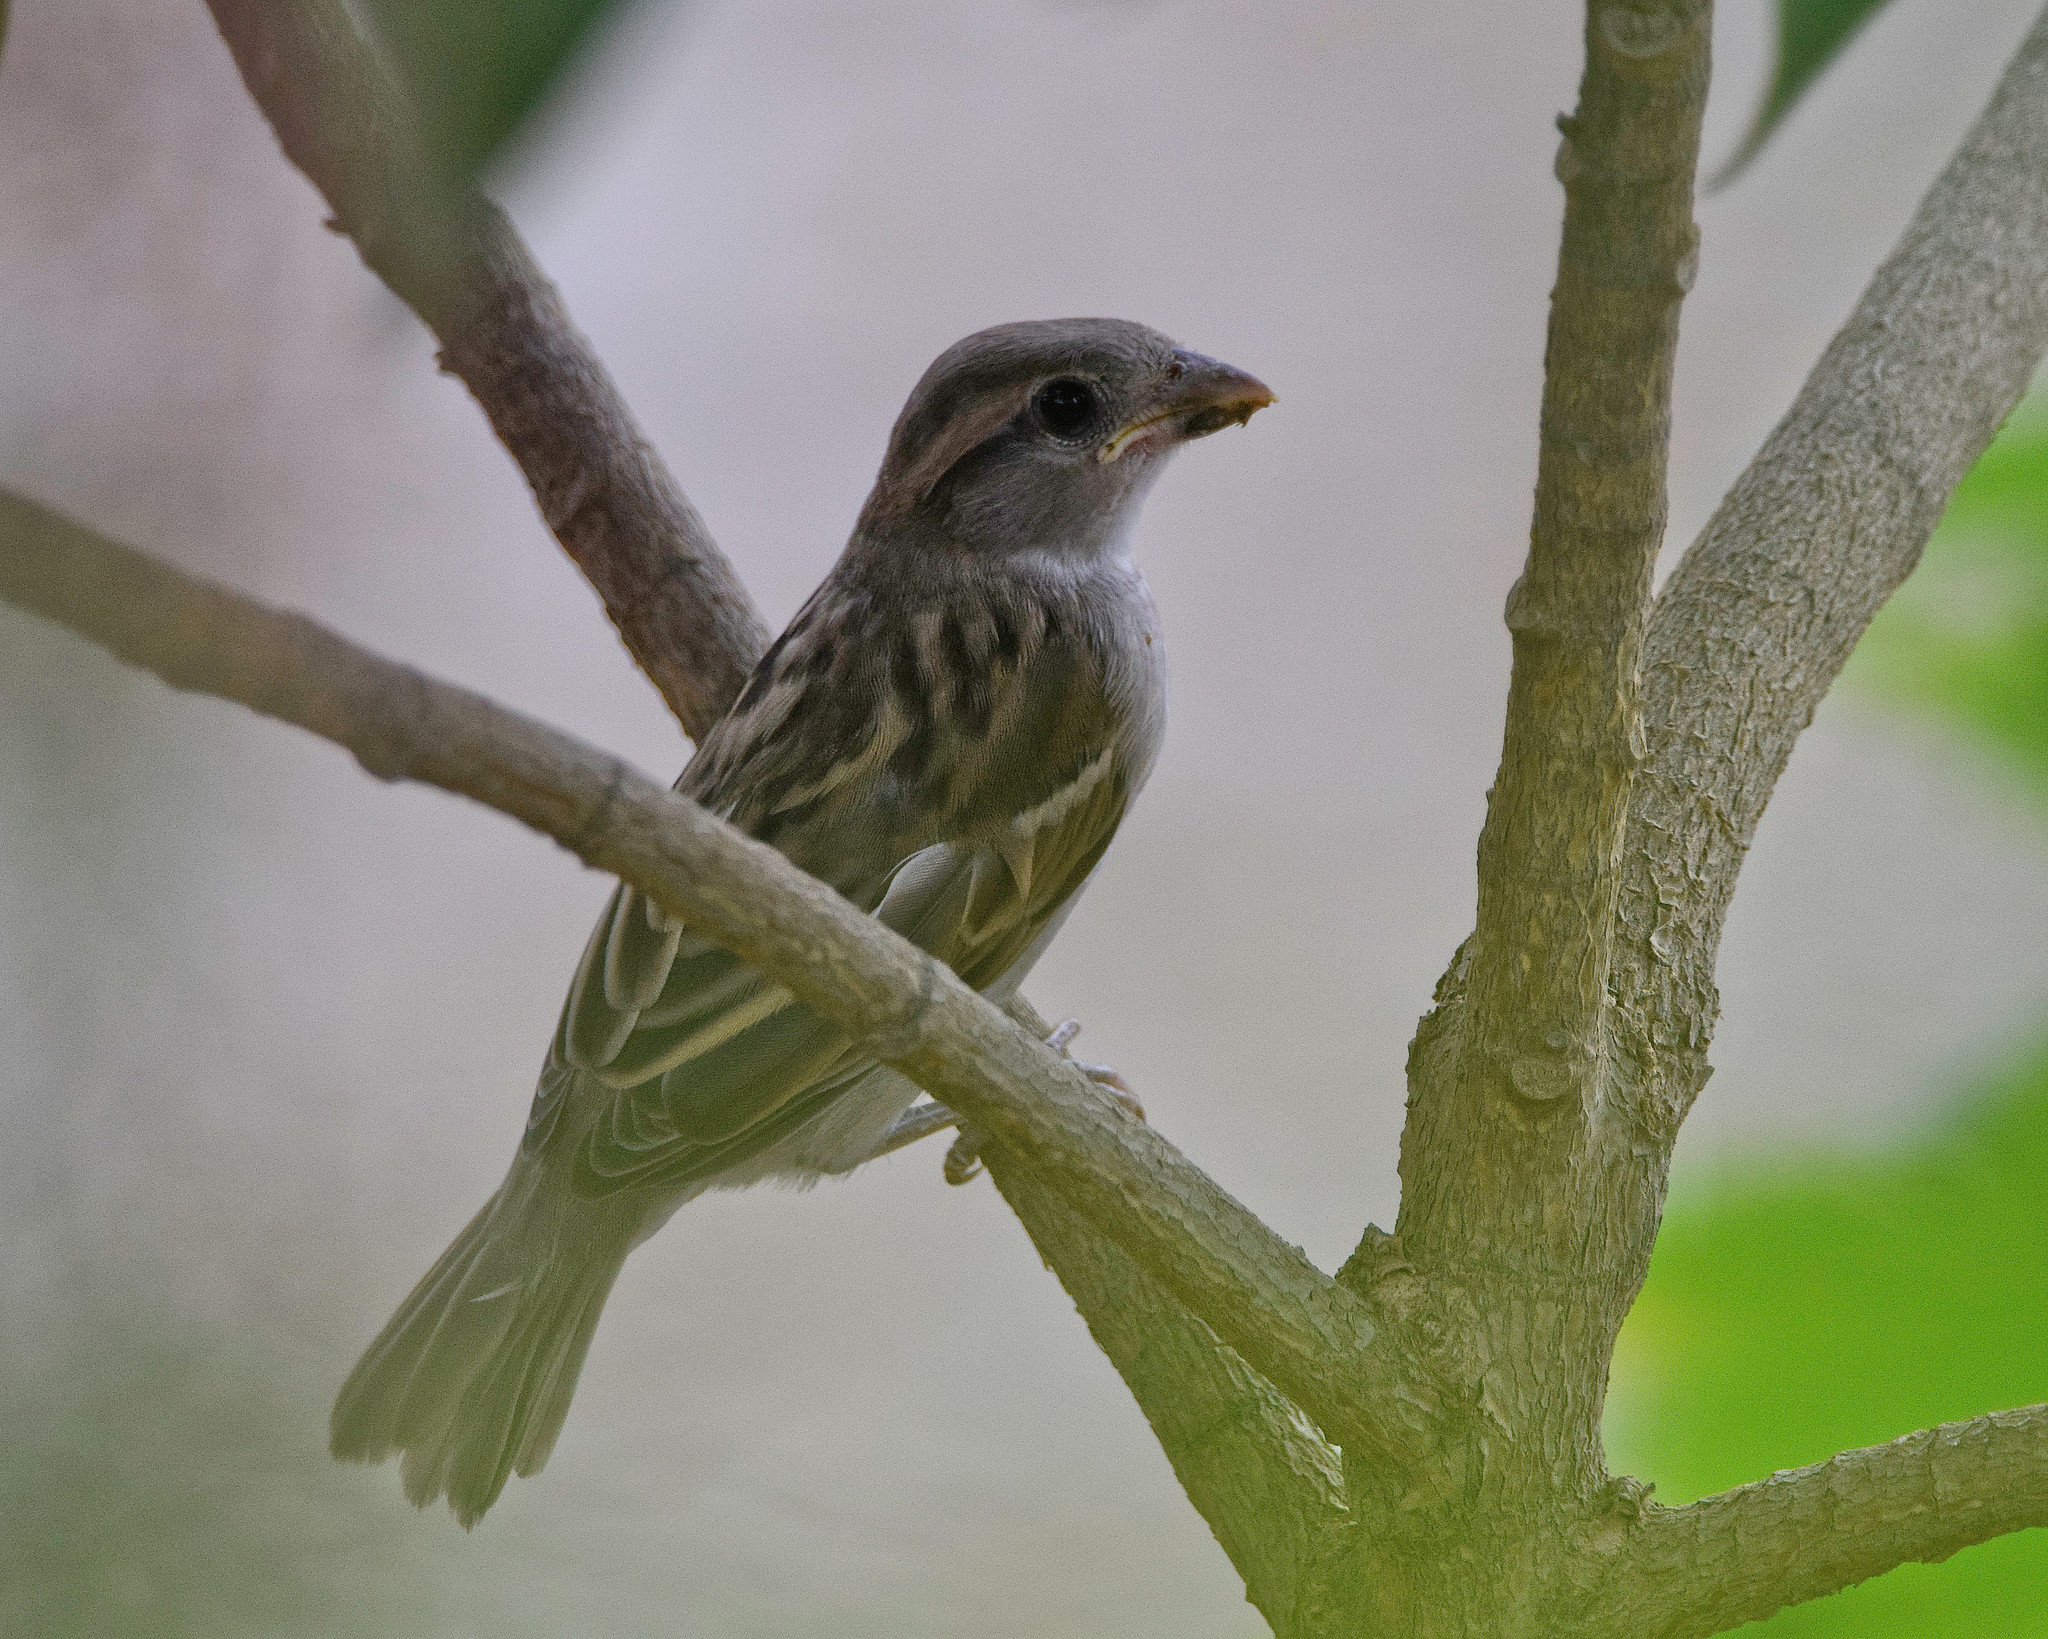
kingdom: Animalia
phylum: Chordata
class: Aves
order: Passeriformes
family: Passeridae
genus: Passer
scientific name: Passer italiae
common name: Italian sparrow
